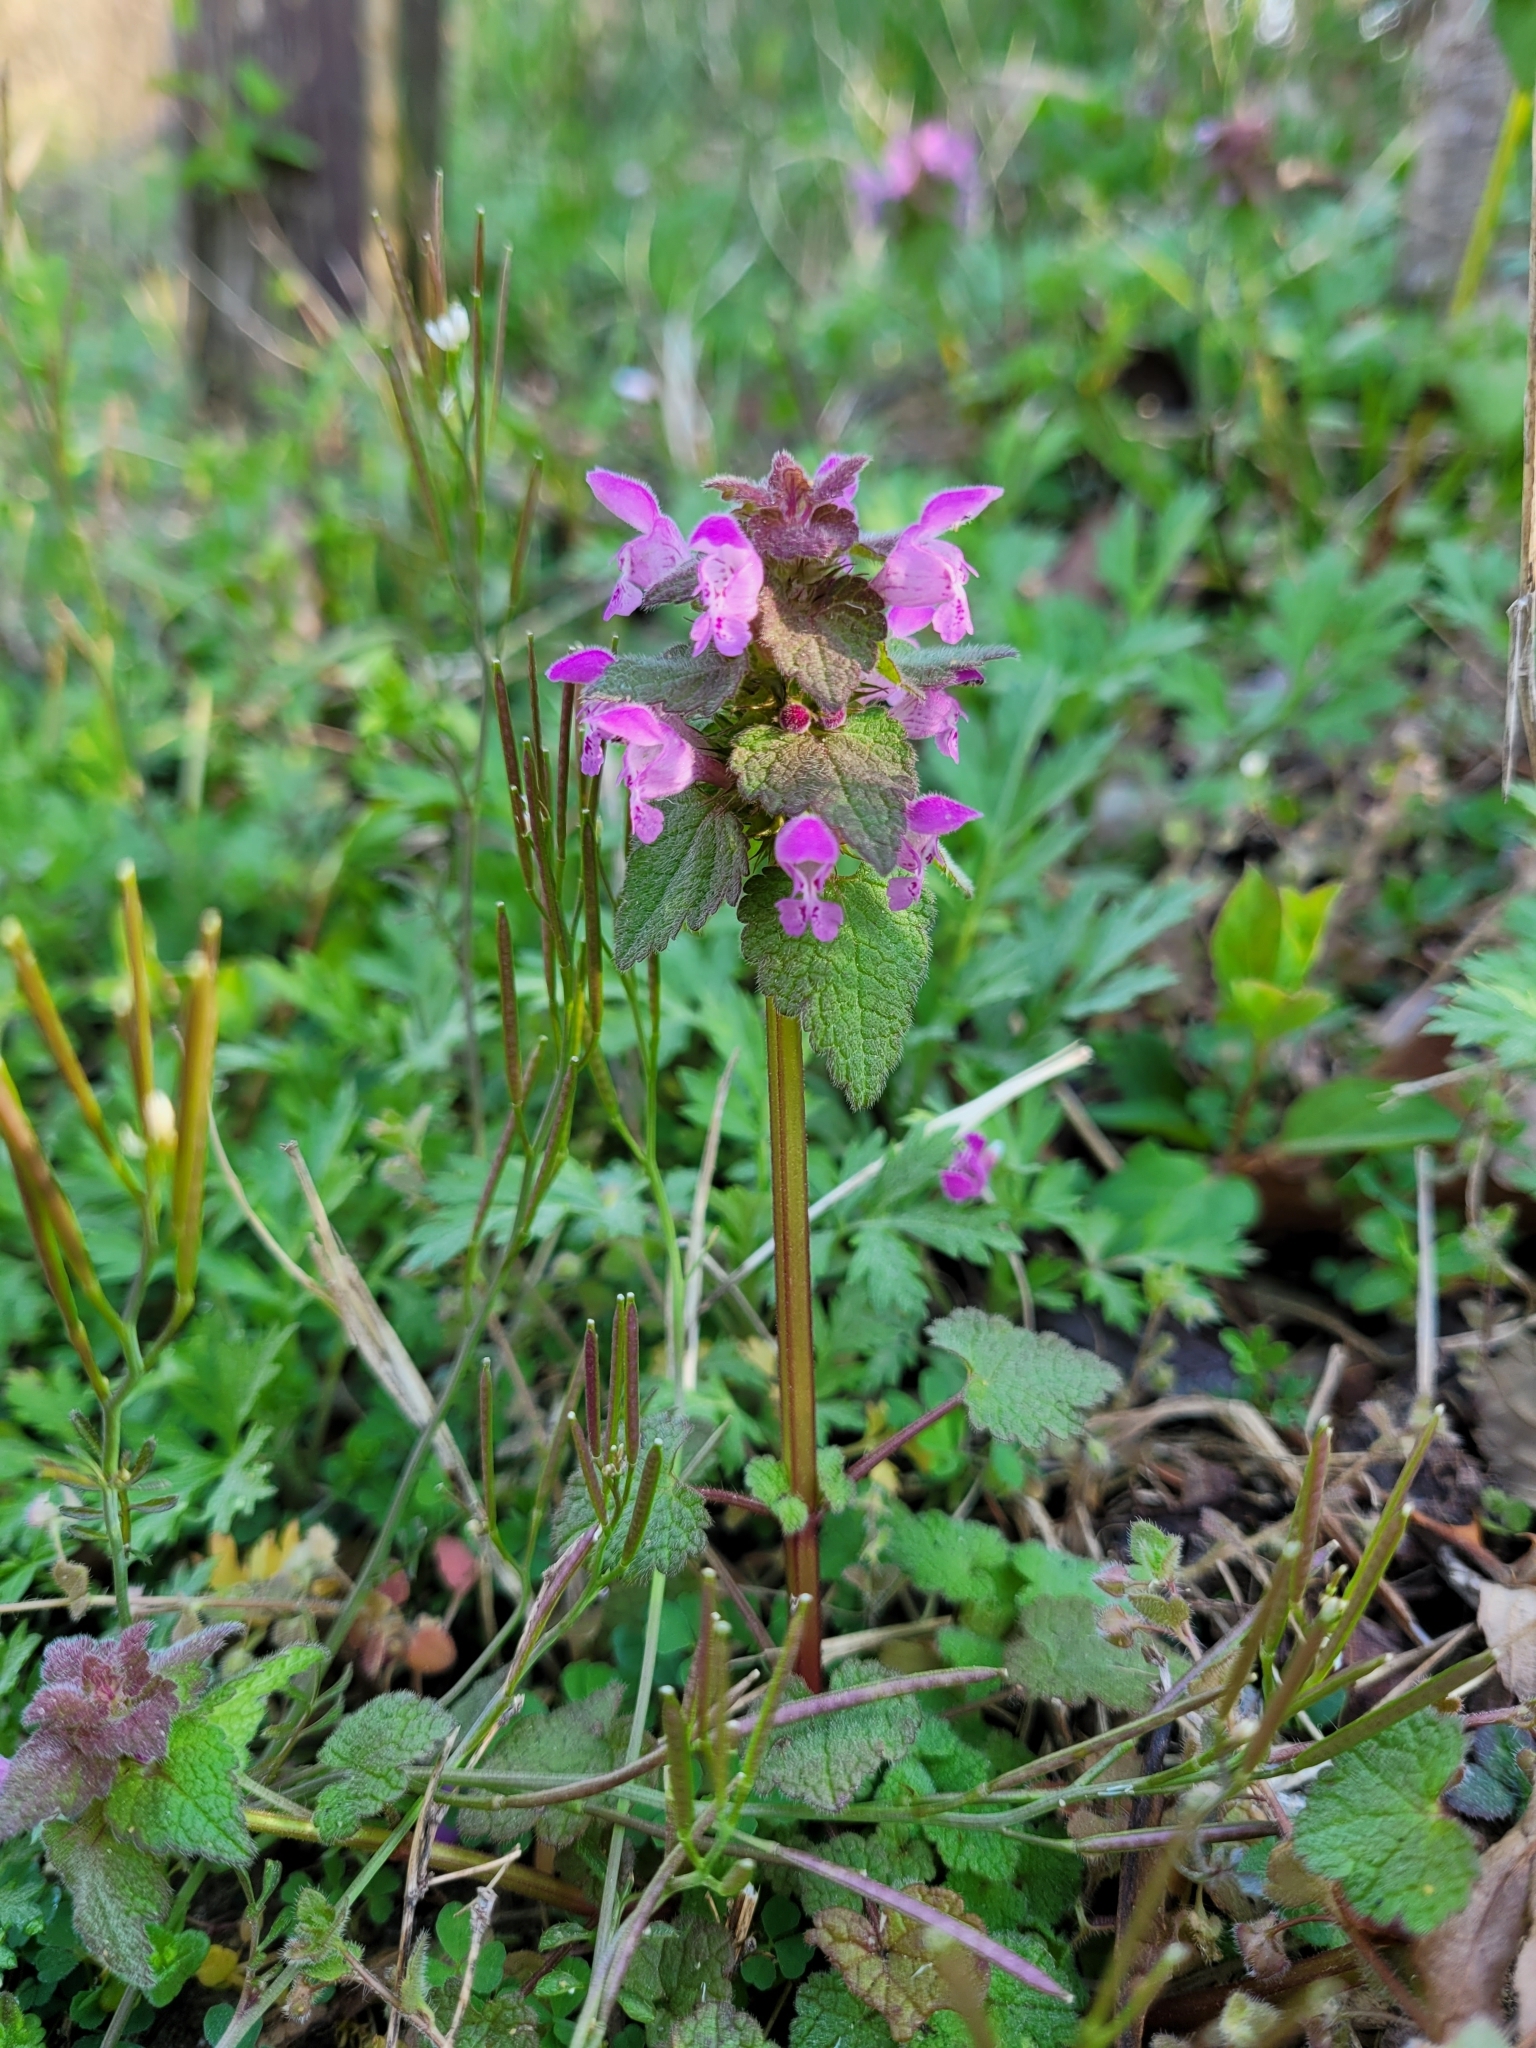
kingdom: Plantae
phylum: Tracheophyta
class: Magnoliopsida
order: Lamiales
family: Lamiaceae
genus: Lamium
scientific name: Lamium purpureum
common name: Red dead-nettle
